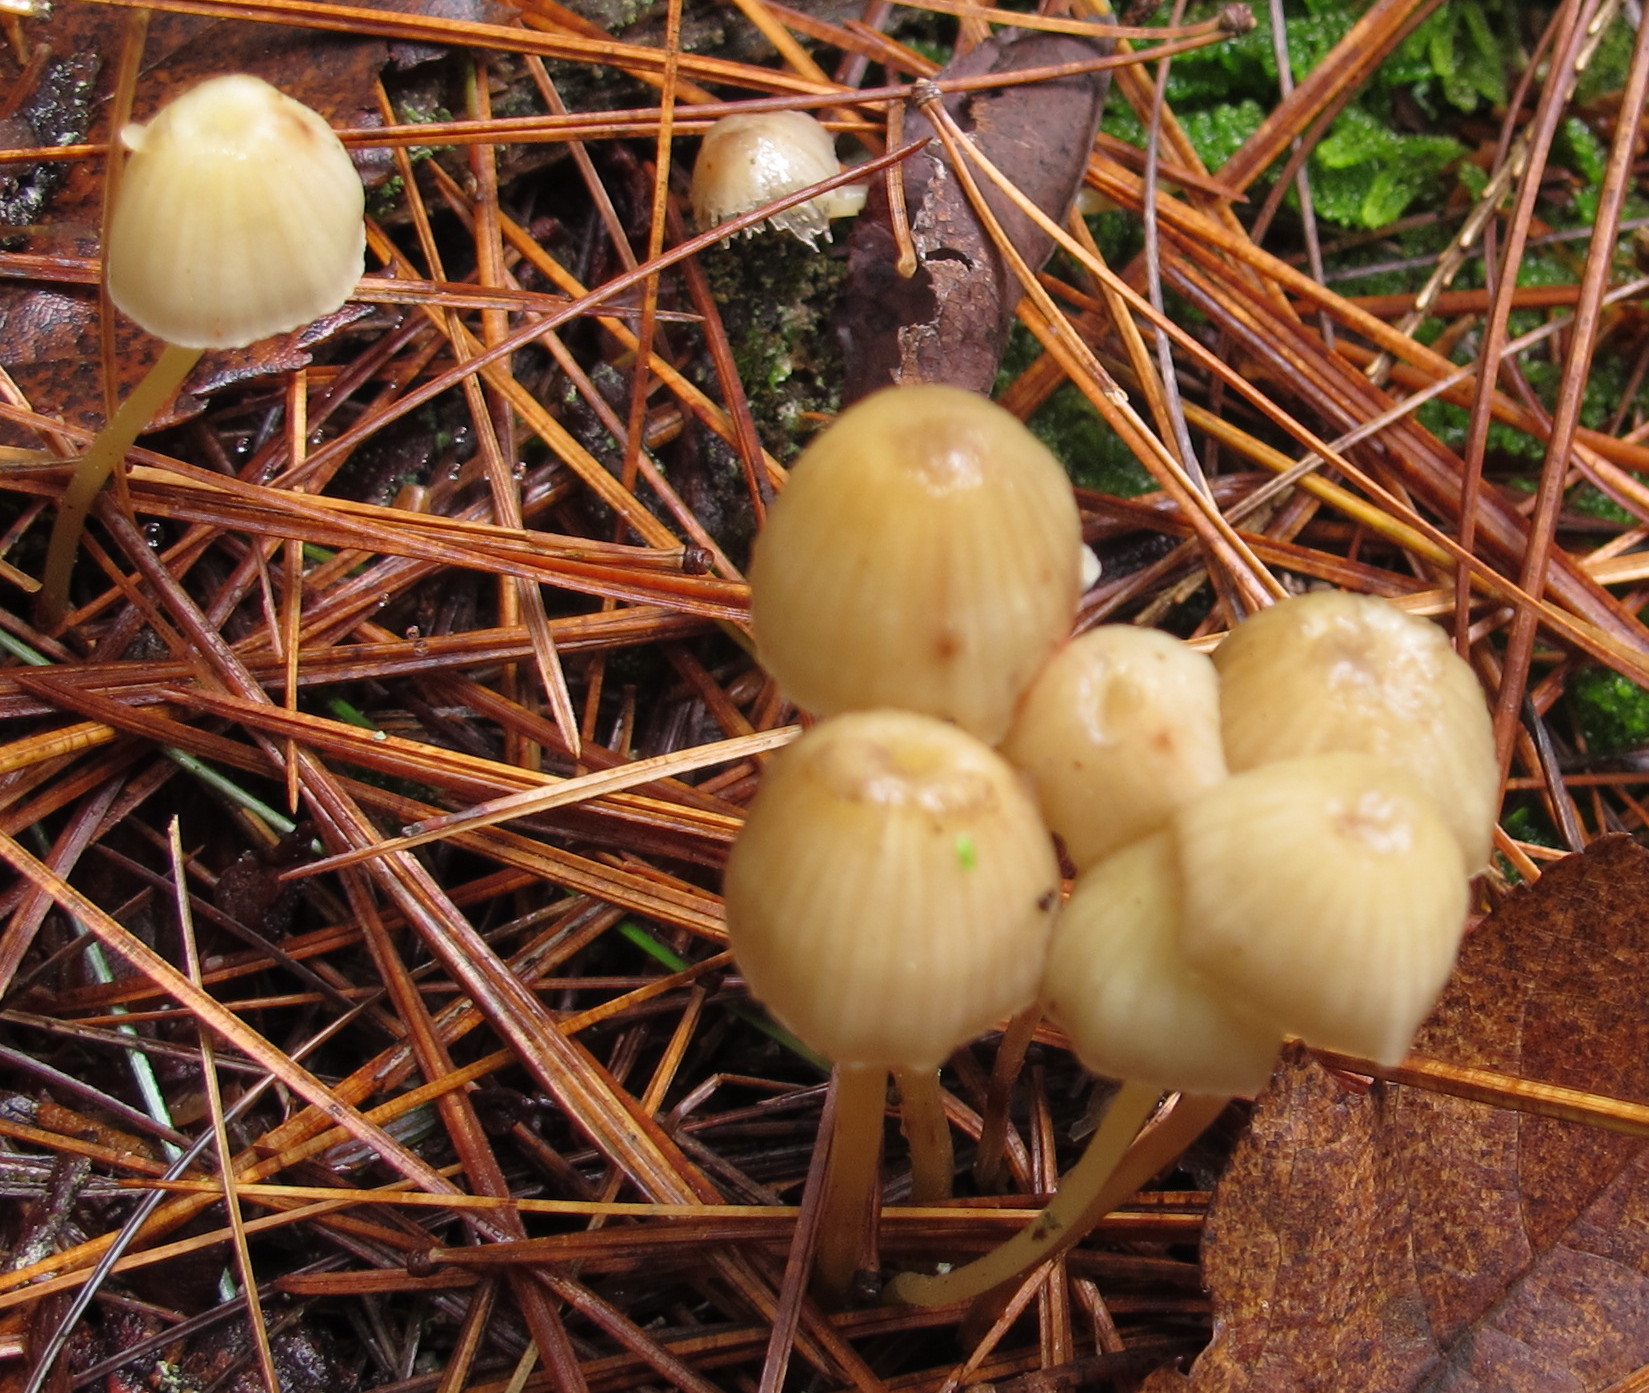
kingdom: Fungi
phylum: Basidiomycota
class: Agaricomycetes
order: Agaricales
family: Mycenaceae
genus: Mycena
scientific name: Mycena epipterygia
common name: Yellowleg bonnet
